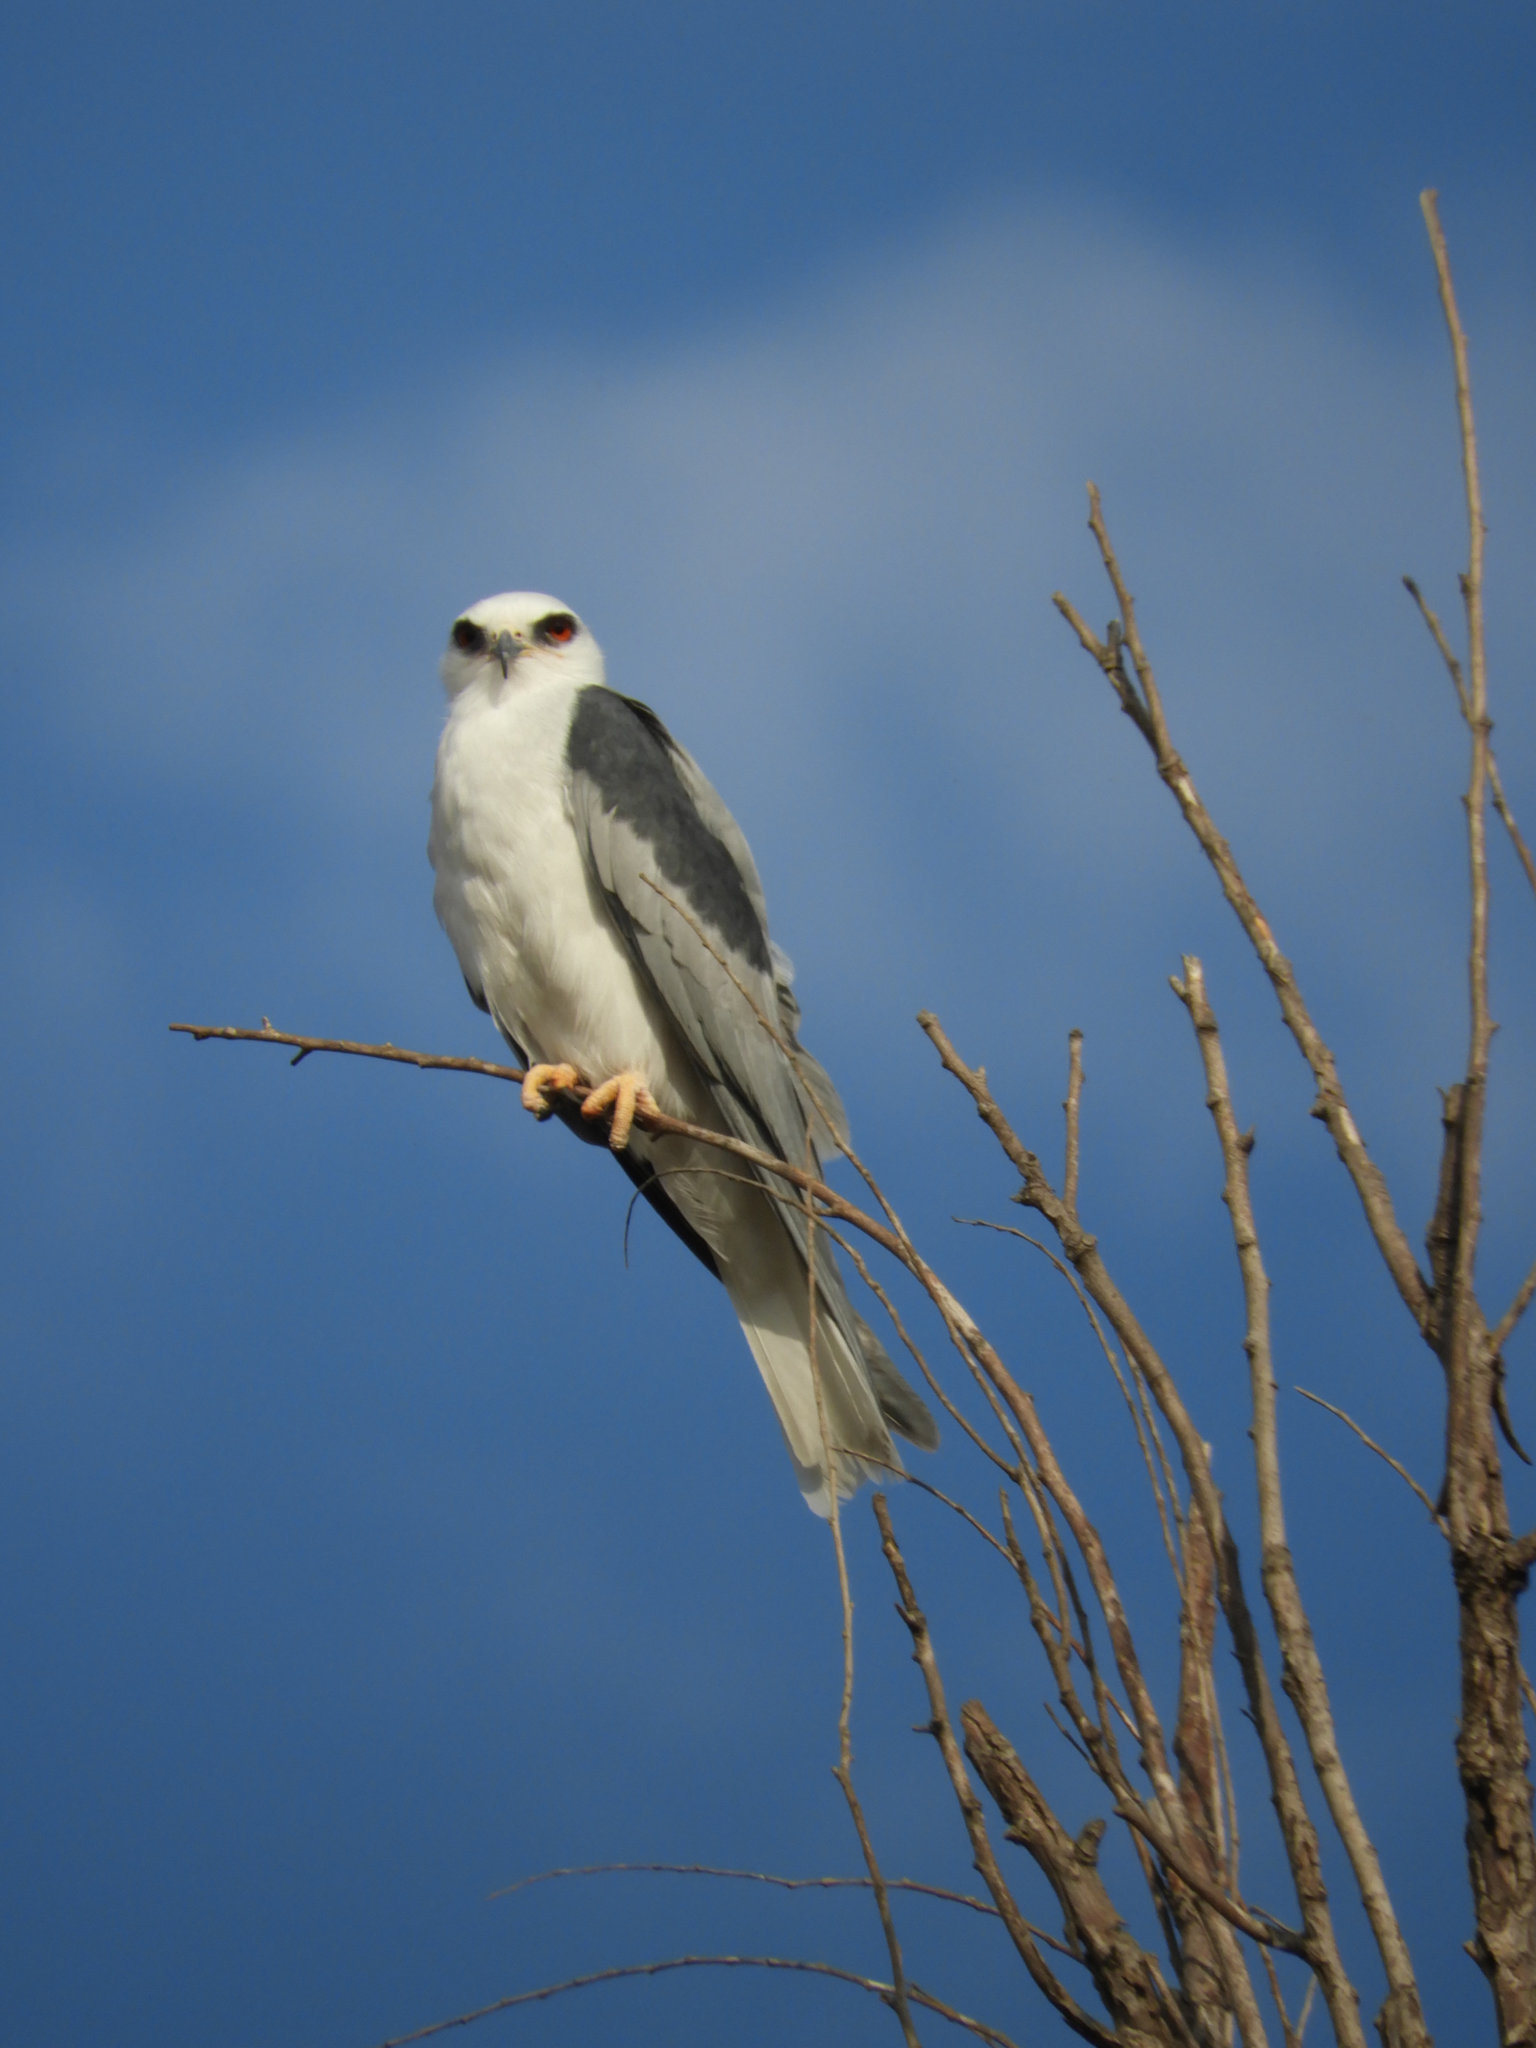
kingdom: Animalia
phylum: Chordata
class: Aves
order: Accipitriformes
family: Accipitridae
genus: Elanus
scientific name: Elanus leucurus
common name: White-tailed kite
